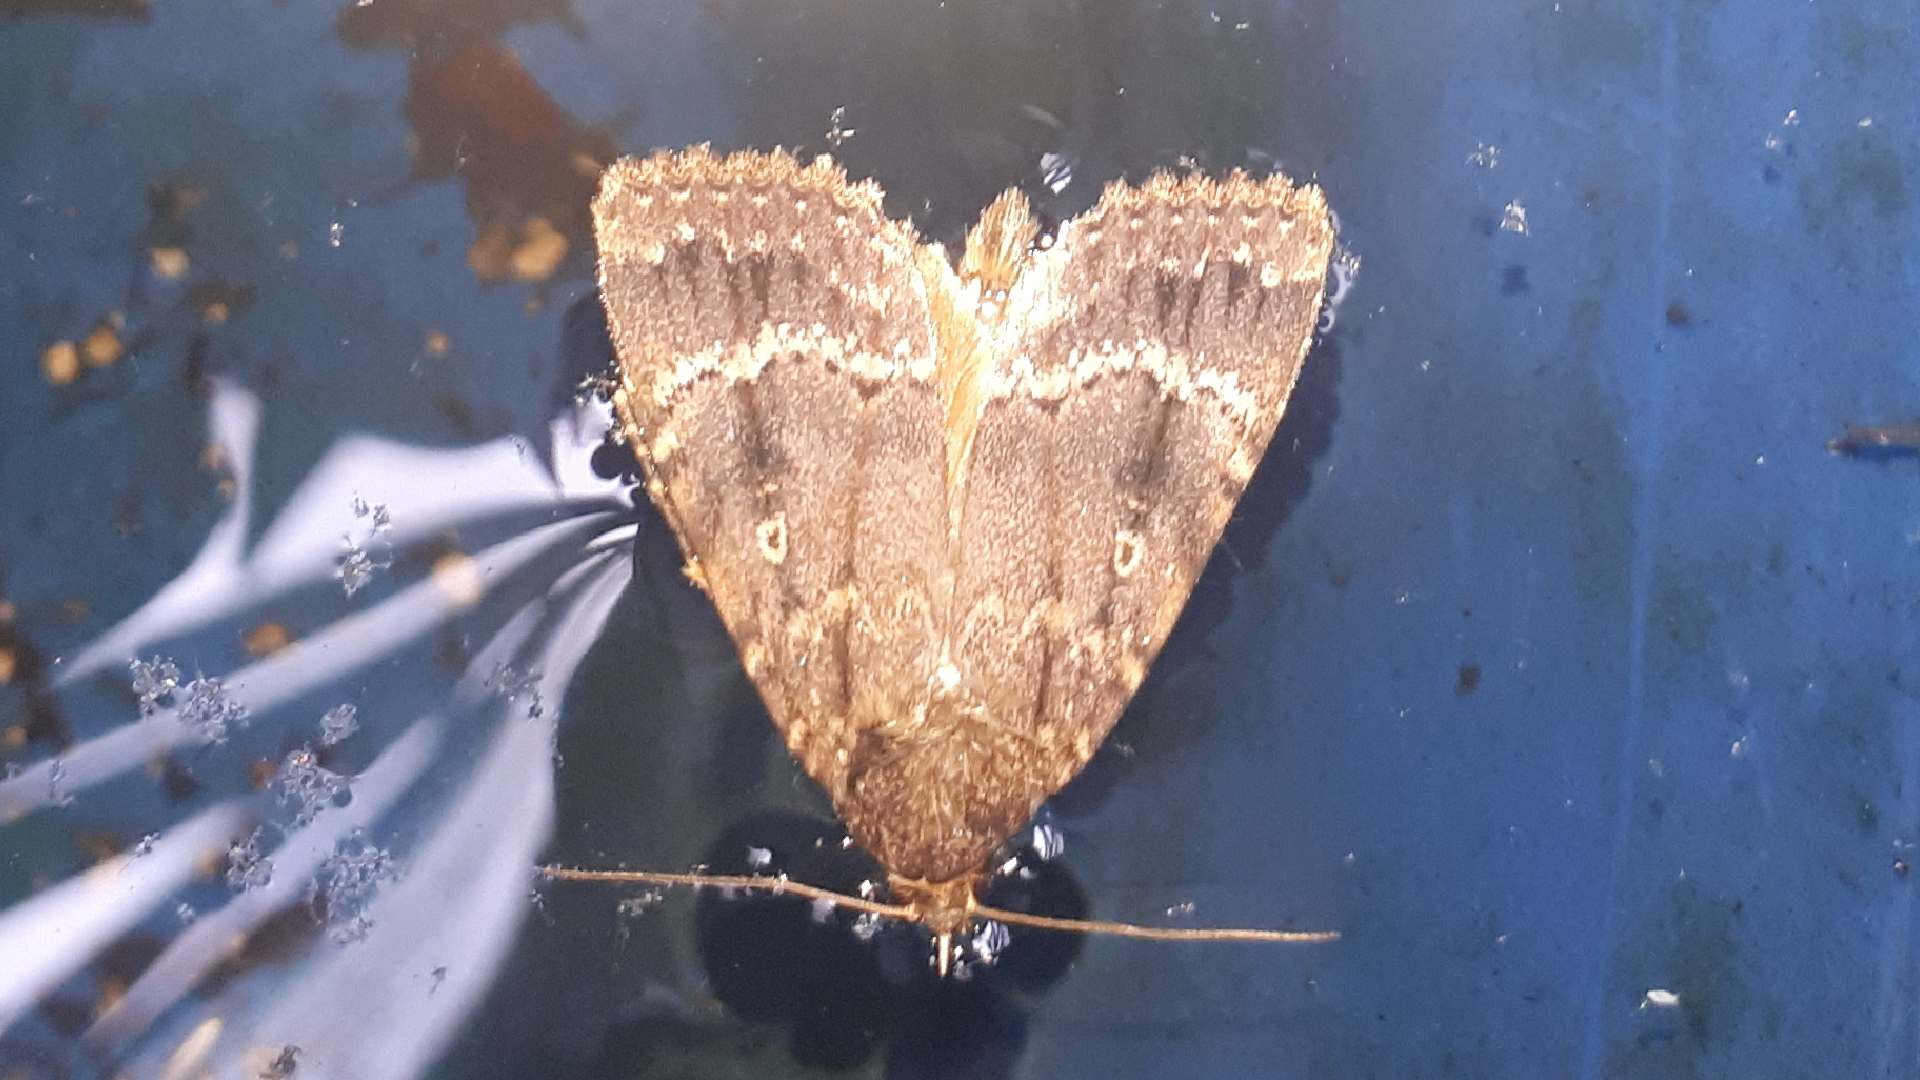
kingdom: Animalia
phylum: Arthropoda
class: Insecta
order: Lepidoptera
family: Noctuidae
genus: Amphipyra
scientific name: Amphipyra pyramidea
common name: Copper underwing
